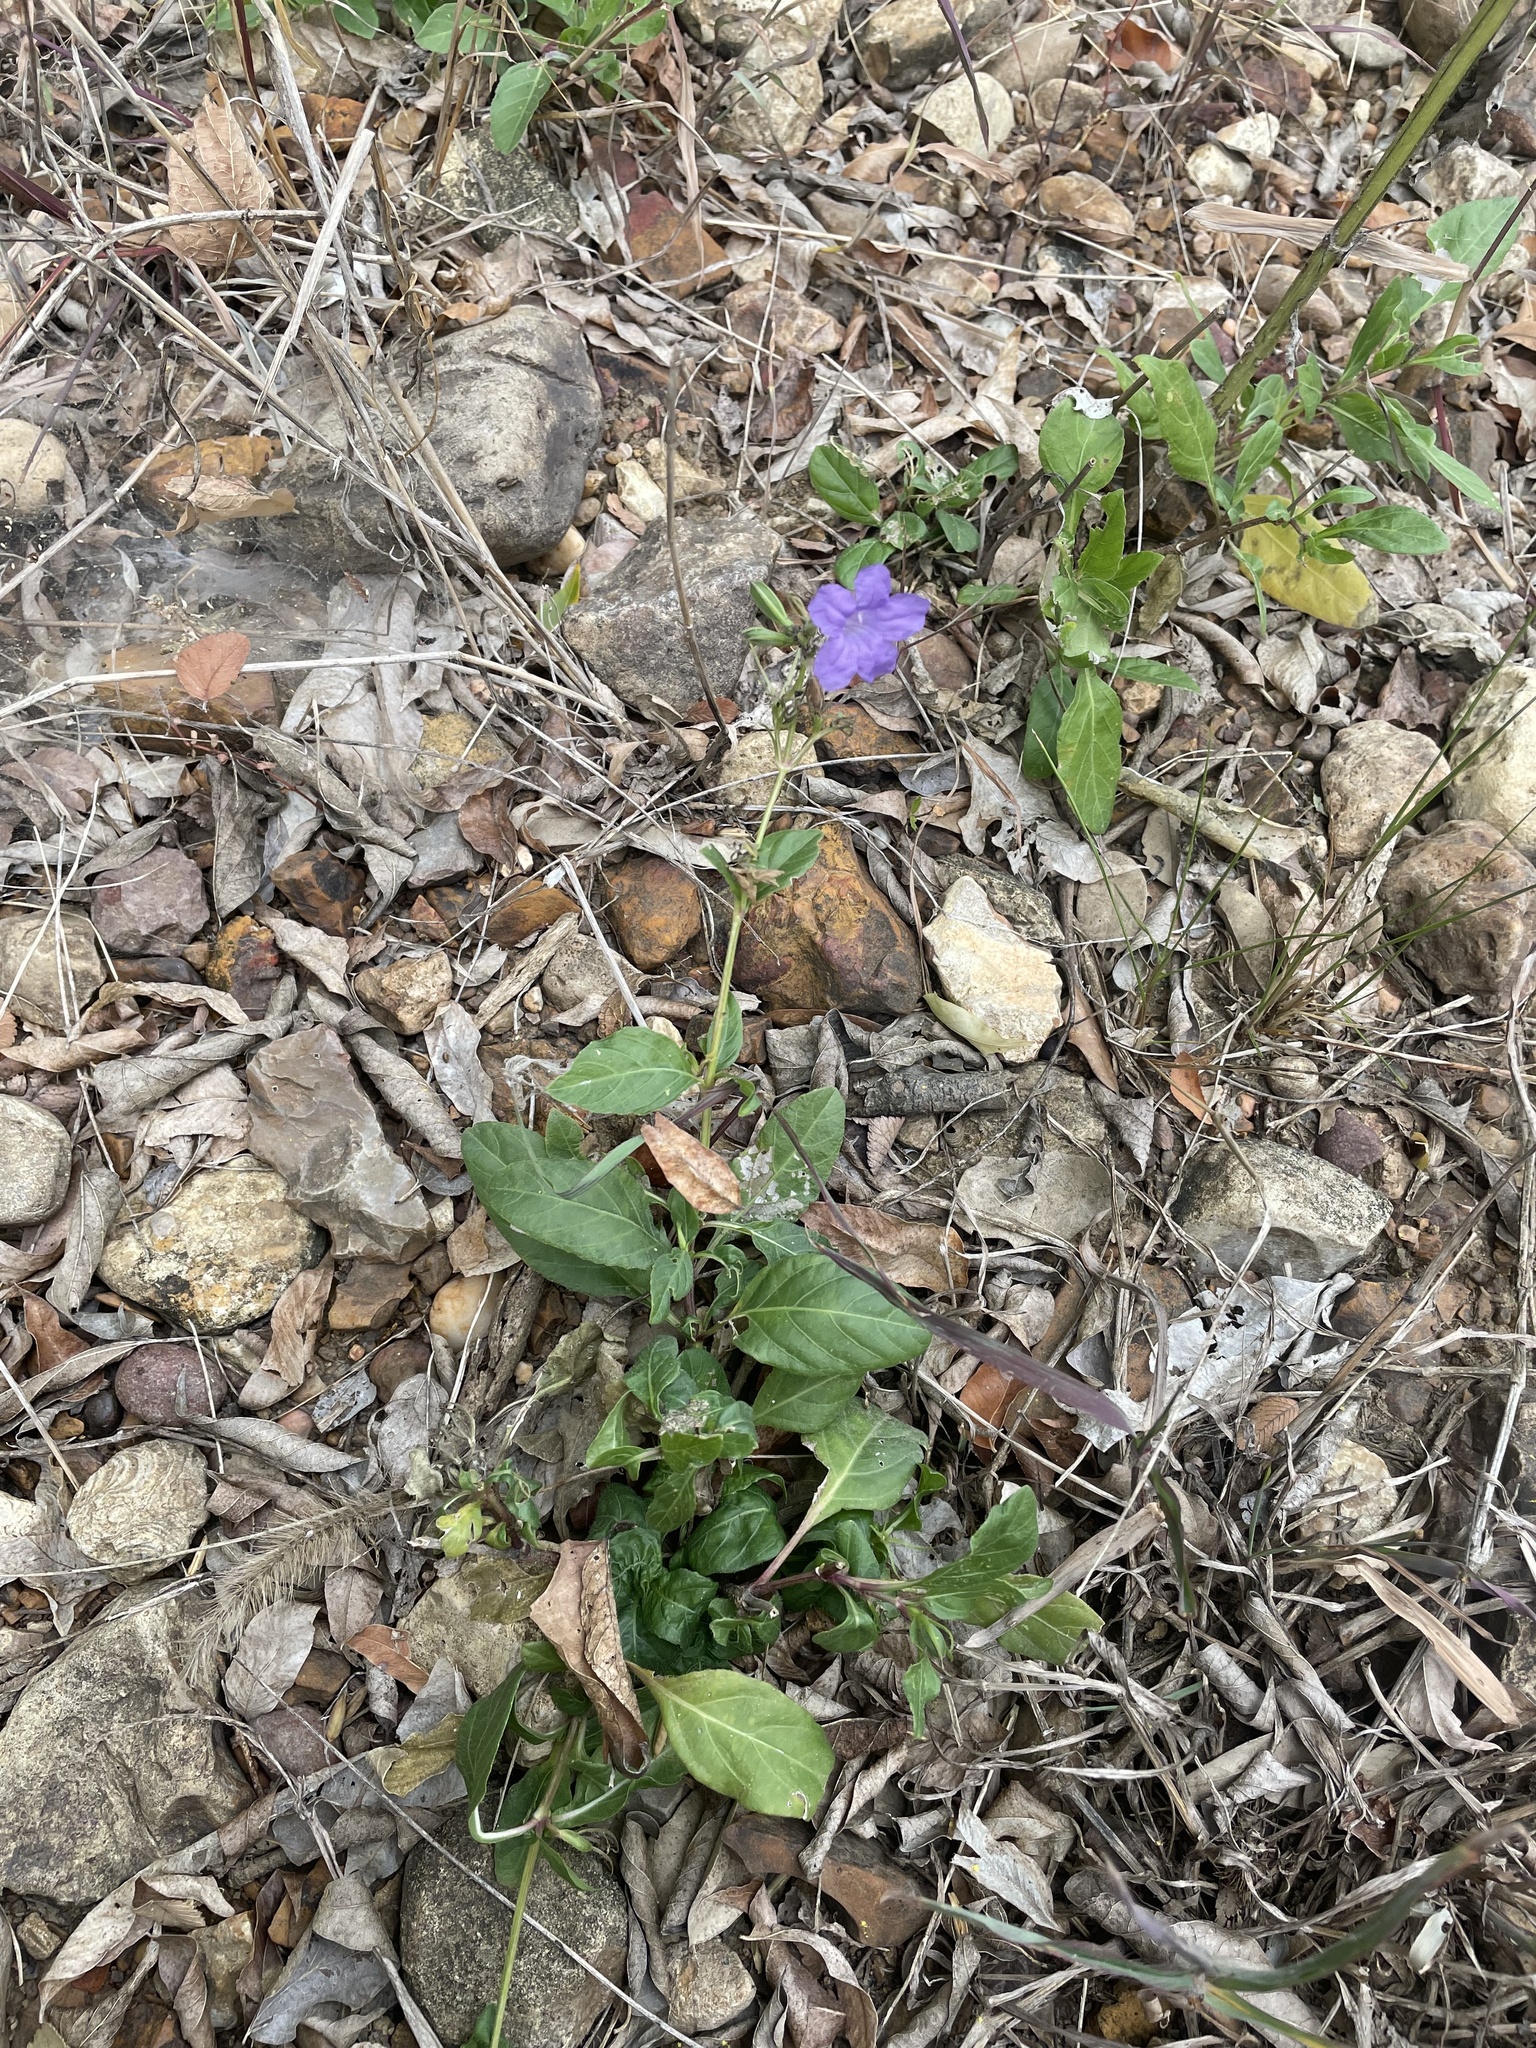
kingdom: Plantae
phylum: Tracheophyta
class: Magnoliopsida
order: Lamiales
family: Acanthaceae
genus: Ruellia
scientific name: Ruellia ciliatiflora
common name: Hairyflower wild petunia
